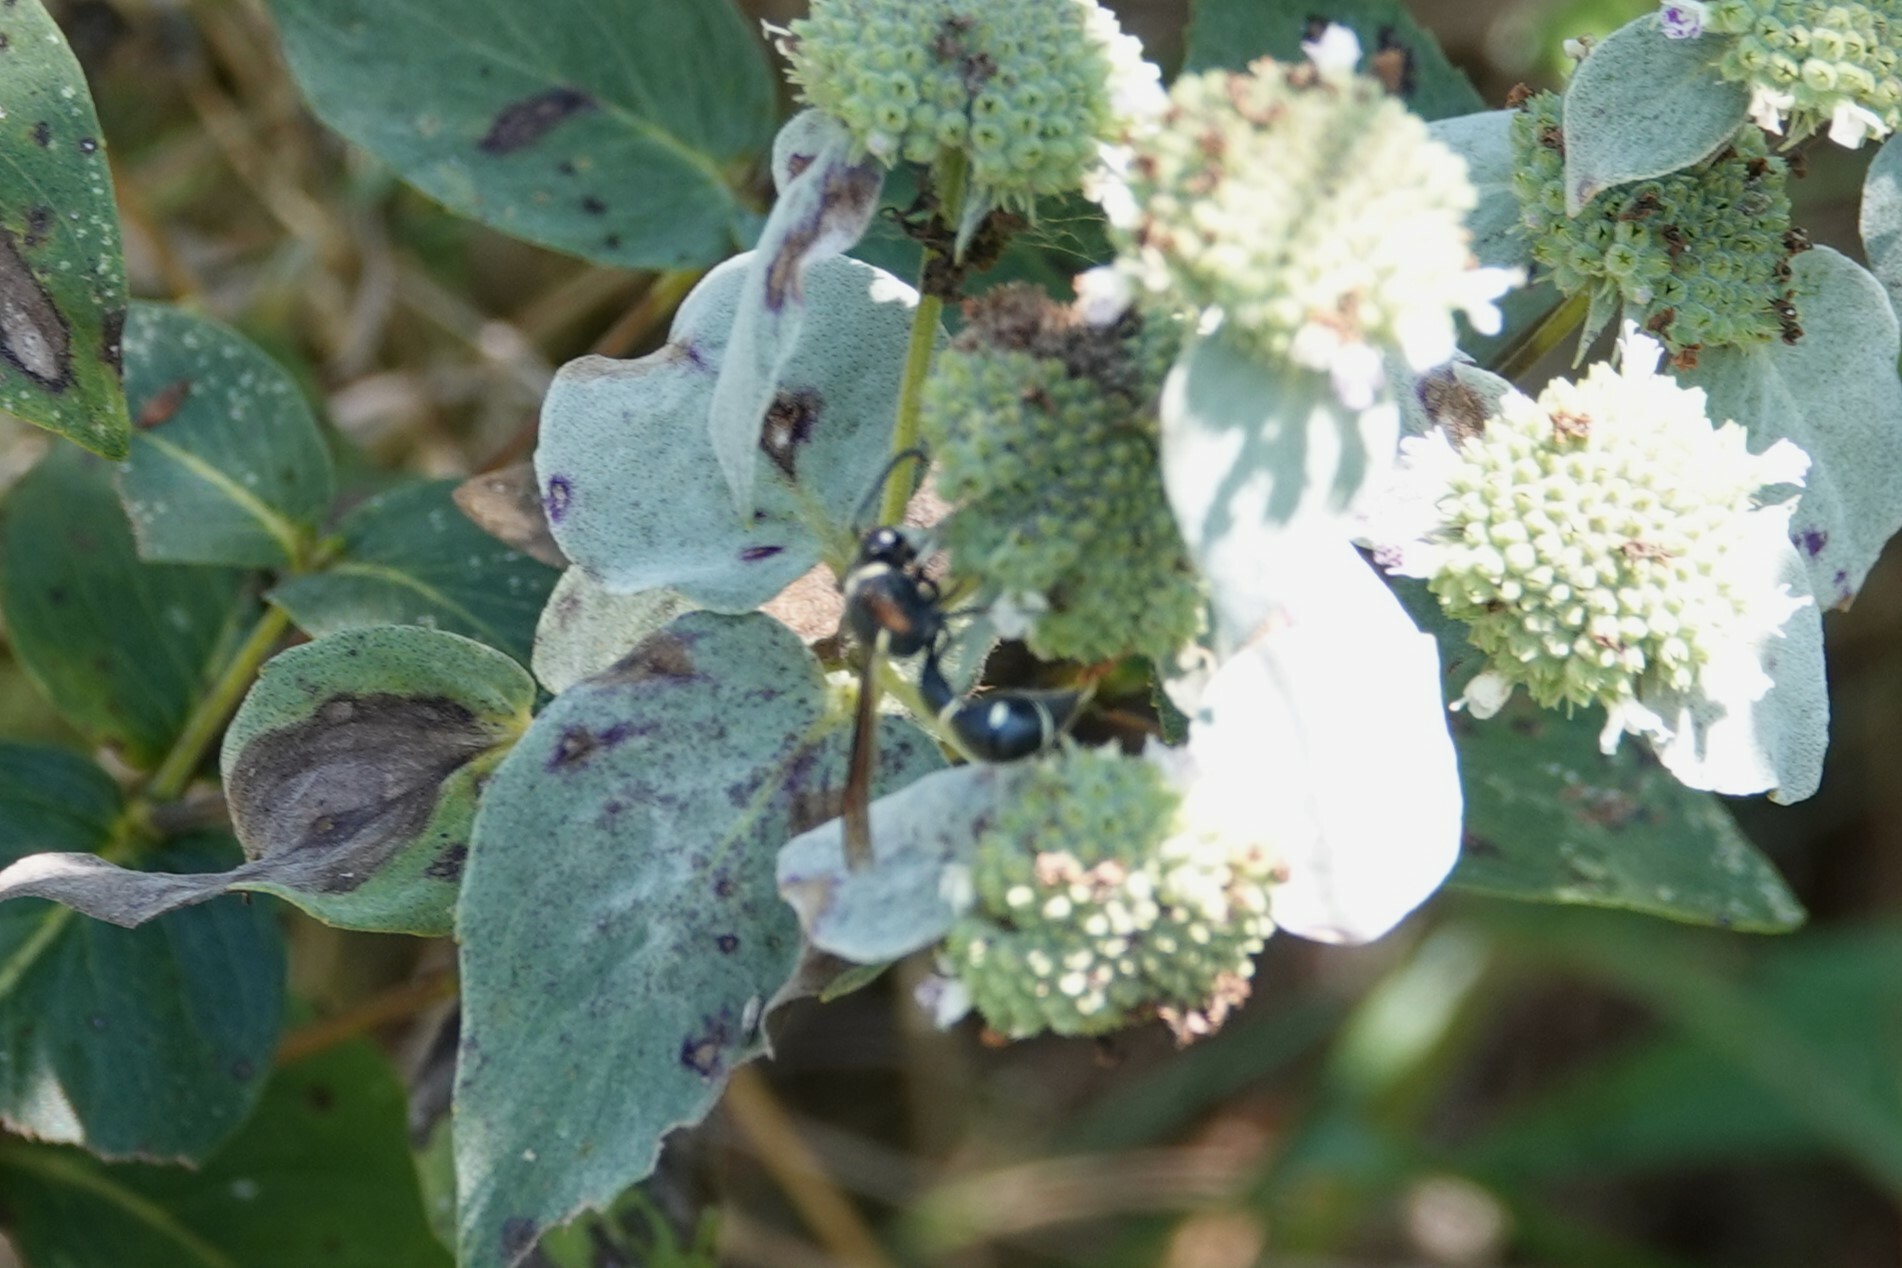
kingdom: Animalia
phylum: Arthropoda
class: Insecta
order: Hymenoptera
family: Vespidae
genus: Eumenes
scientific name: Eumenes fraternus
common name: Fraternal potter wasp
